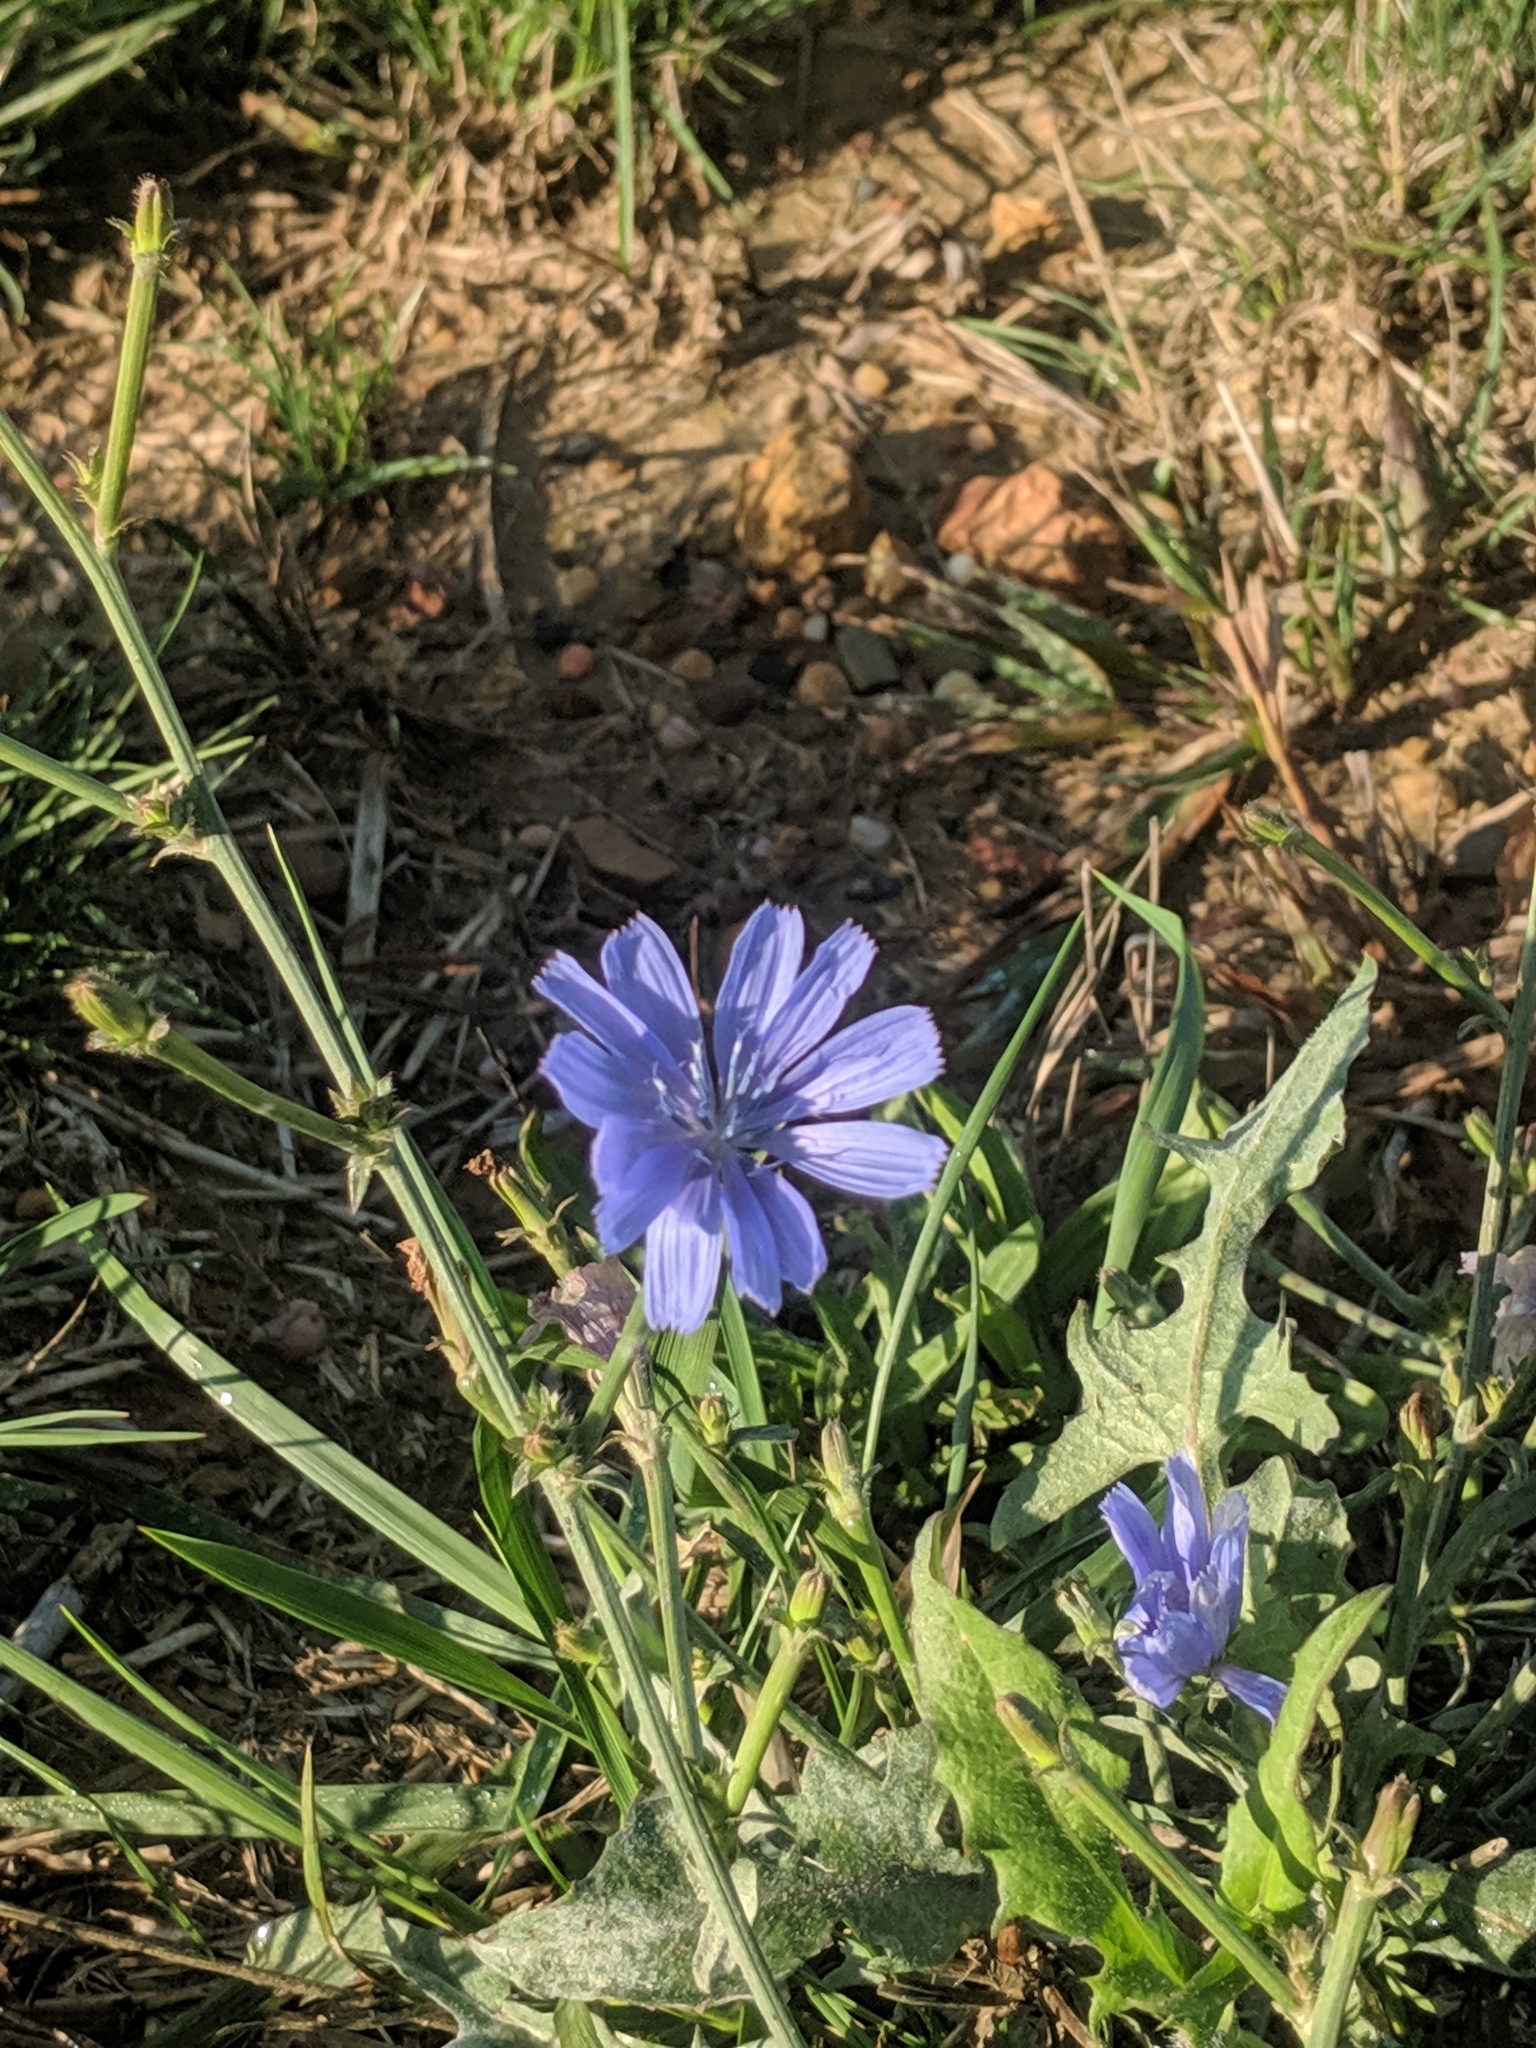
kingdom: Plantae
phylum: Tracheophyta
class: Magnoliopsida
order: Asterales
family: Asteraceae
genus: Cichorium
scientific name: Cichorium intybus
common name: Chicory
